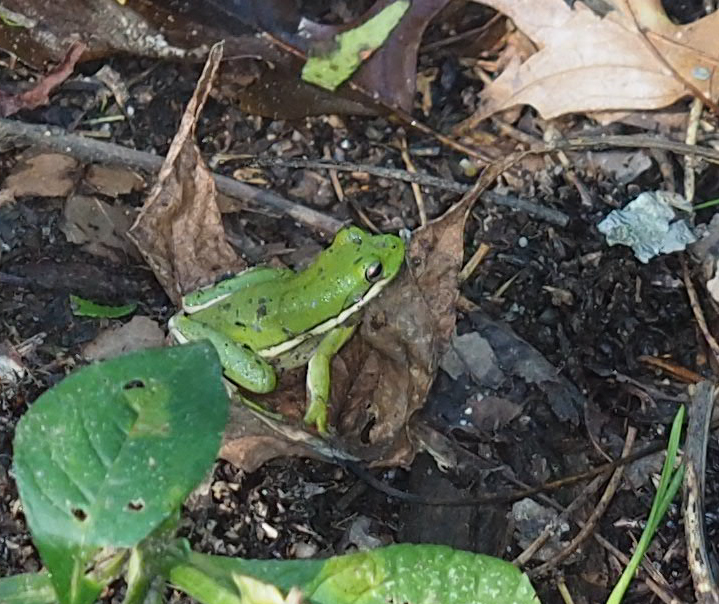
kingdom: Animalia
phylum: Chordata
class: Amphibia
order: Anura
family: Hylidae
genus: Dryophytes
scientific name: Dryophytes cinereus
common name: Green treefrog
